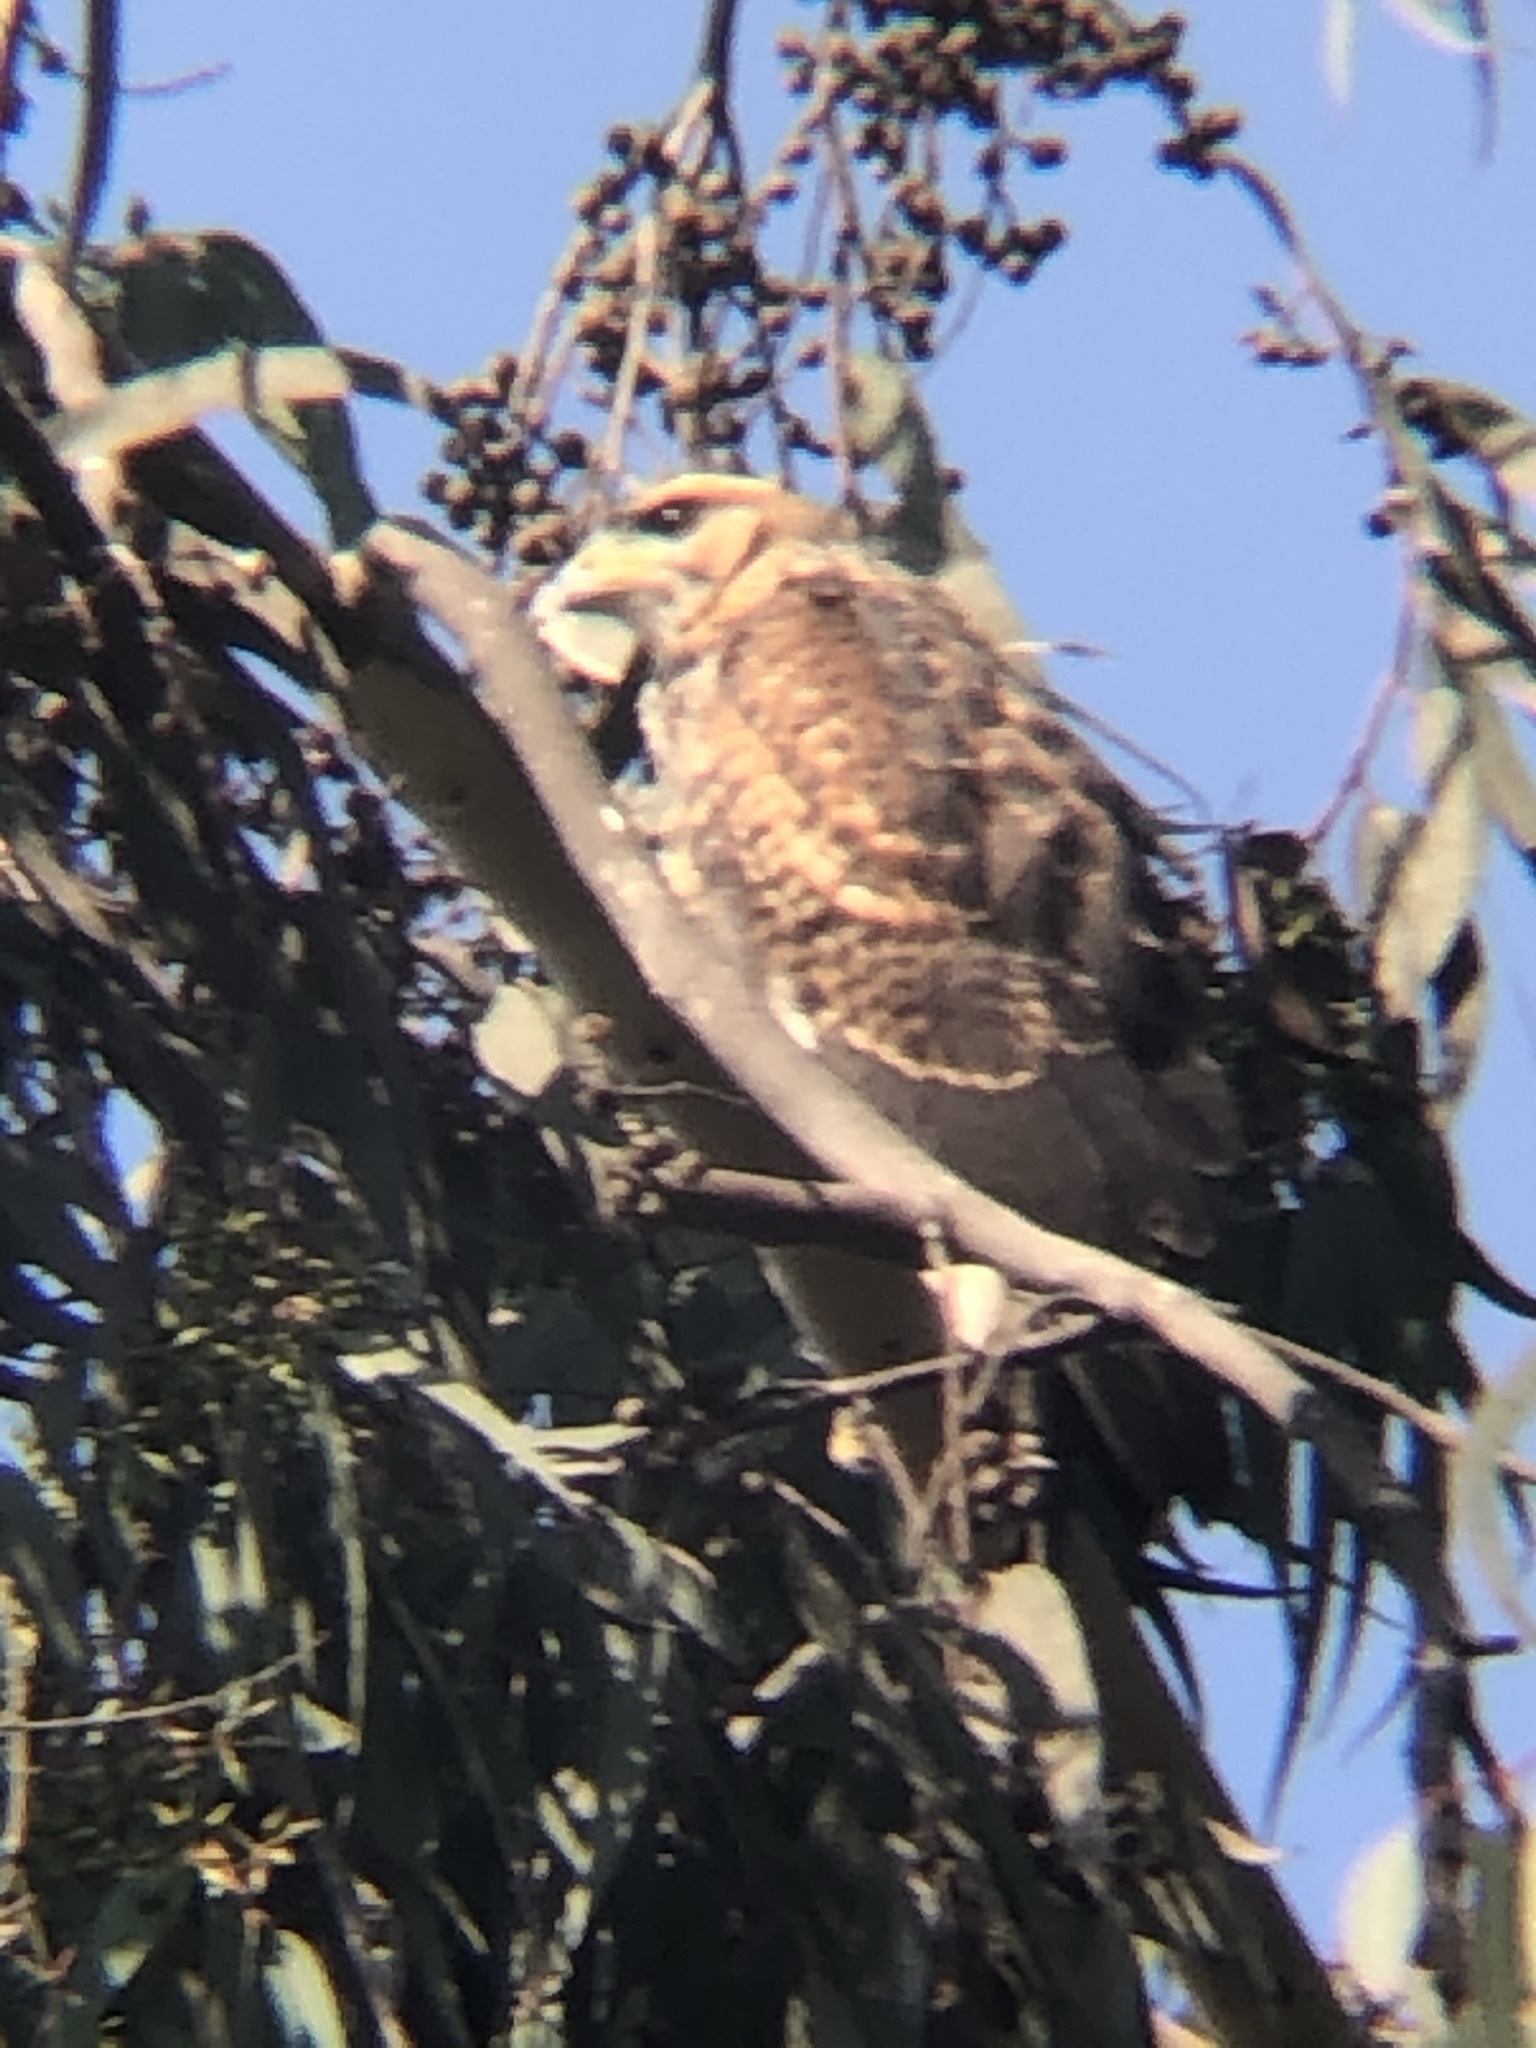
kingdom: Animalia
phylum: Chordata
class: Aves
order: Accipitriformes
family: Accipitridae
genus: Parabuteo
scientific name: Parabuteo unicinctus
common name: Harris's hawk
